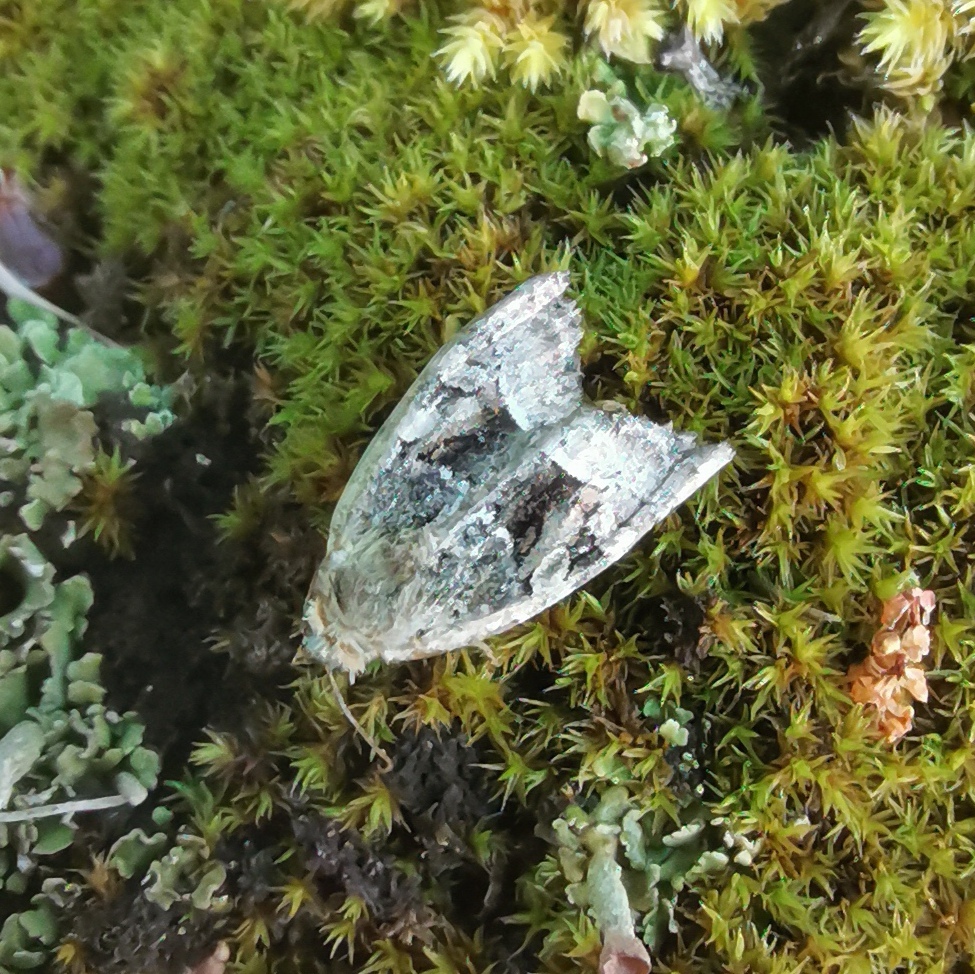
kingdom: Animalia
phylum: Arthropoda
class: Insecta
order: Lepidoptera
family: Noctuidae
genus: Oligia
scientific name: Oligia latruncula
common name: Tawny marbled minor
